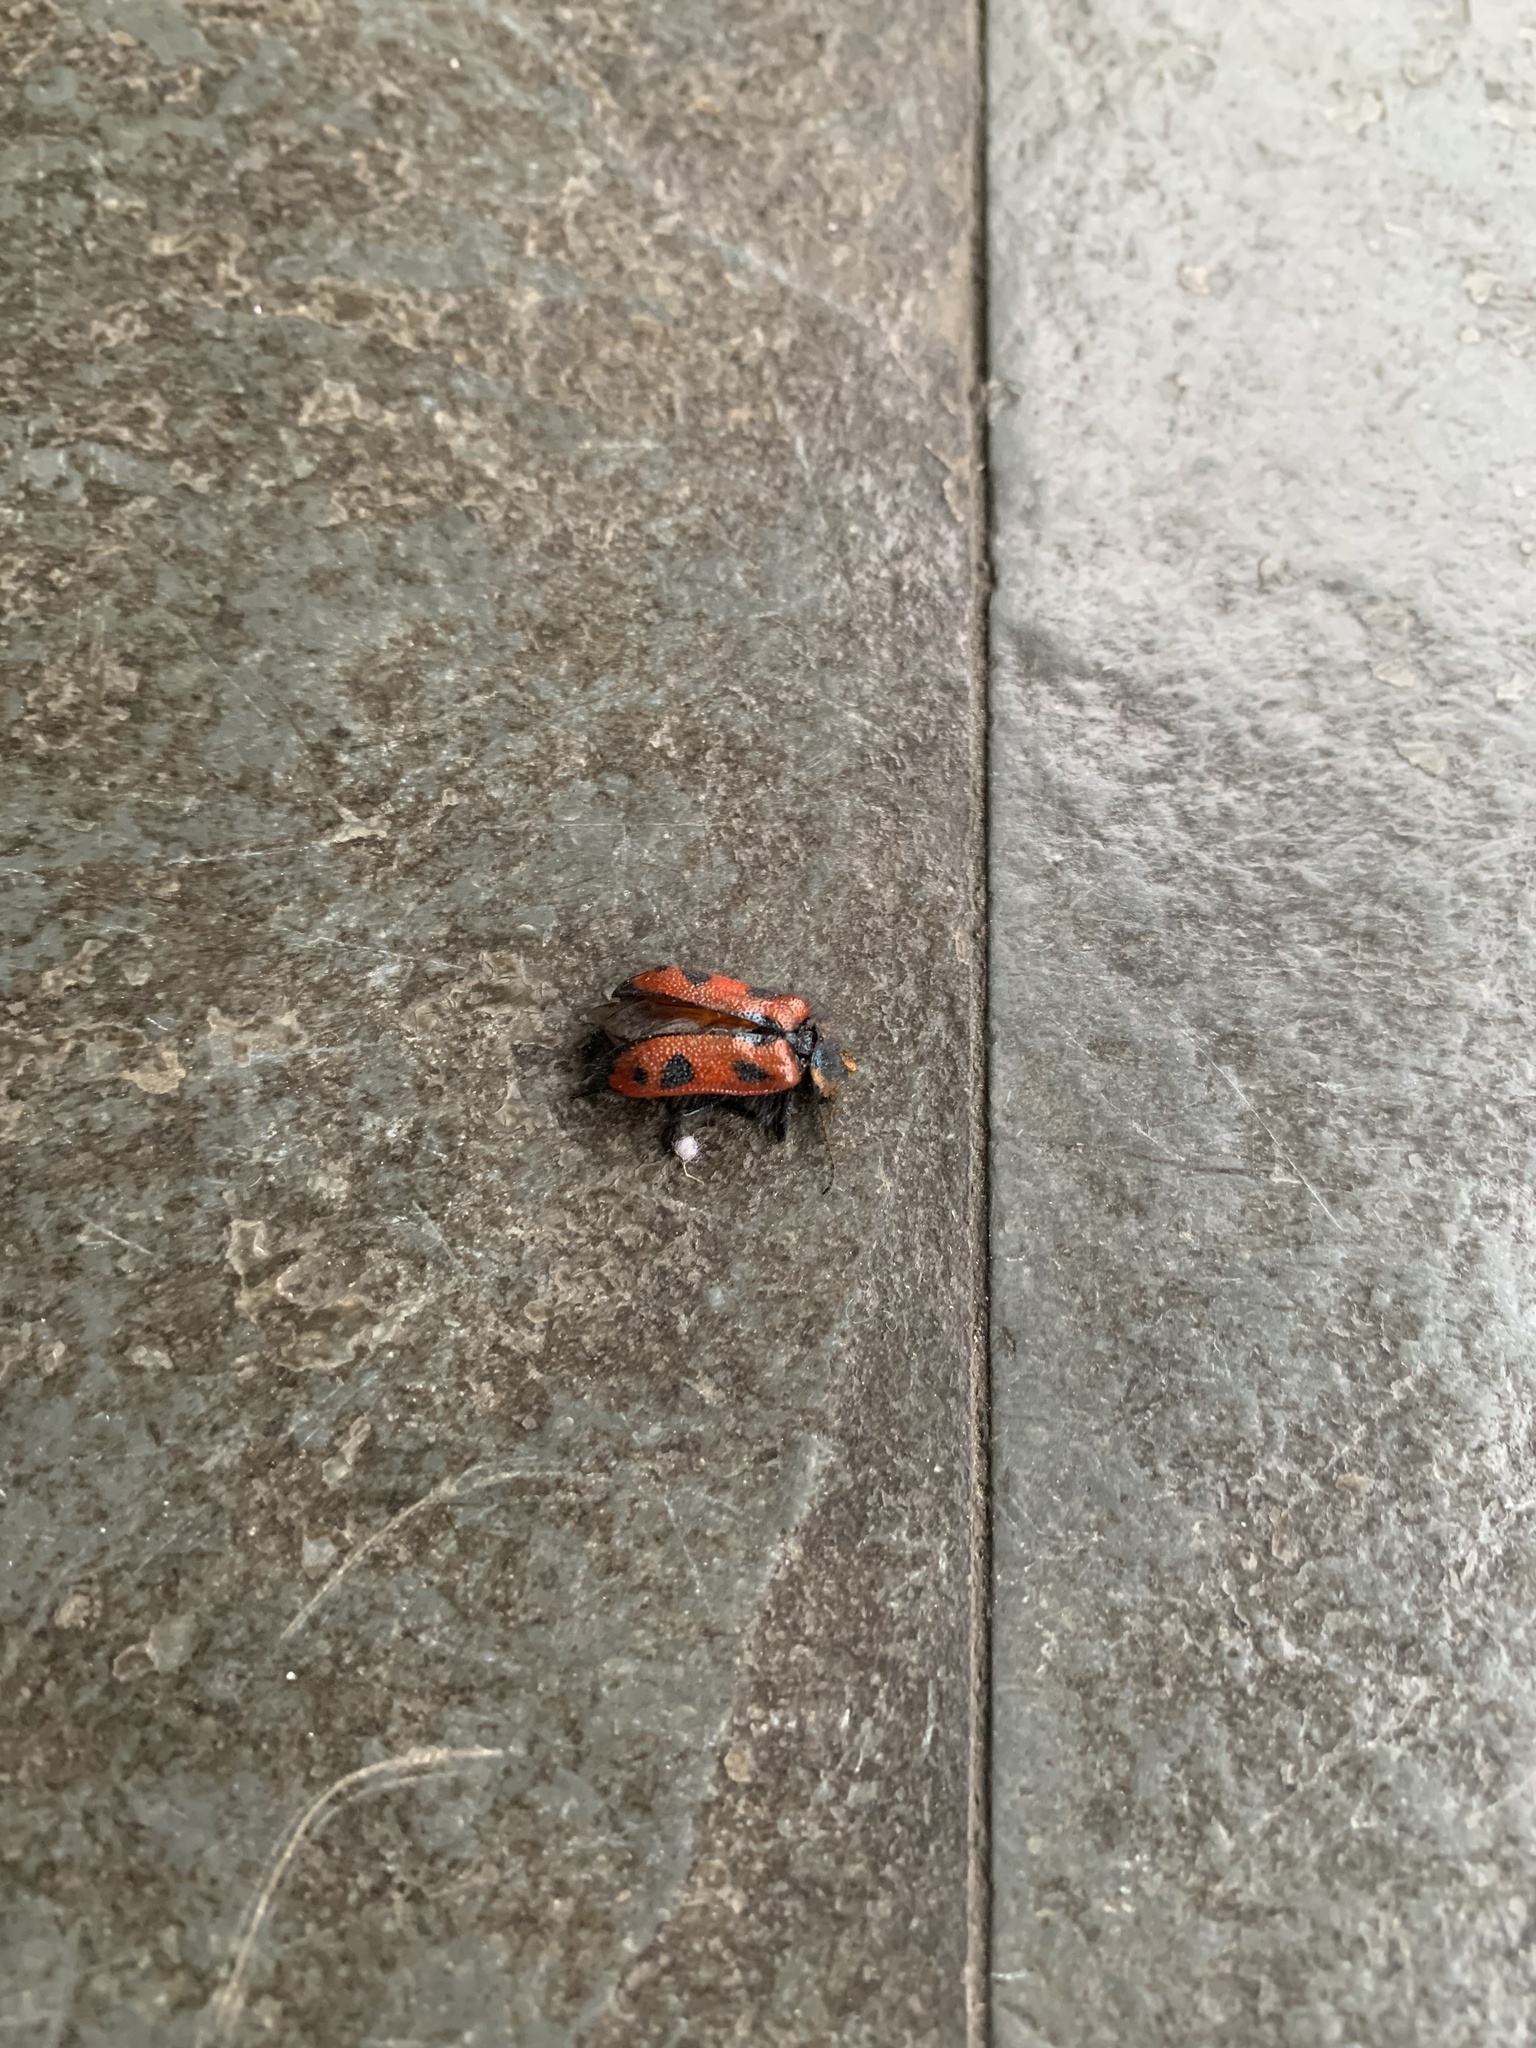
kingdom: Animalia
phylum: Arthropoda
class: Insecta
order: Coleoptera
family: Melyridae
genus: Astylus
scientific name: Astylus
